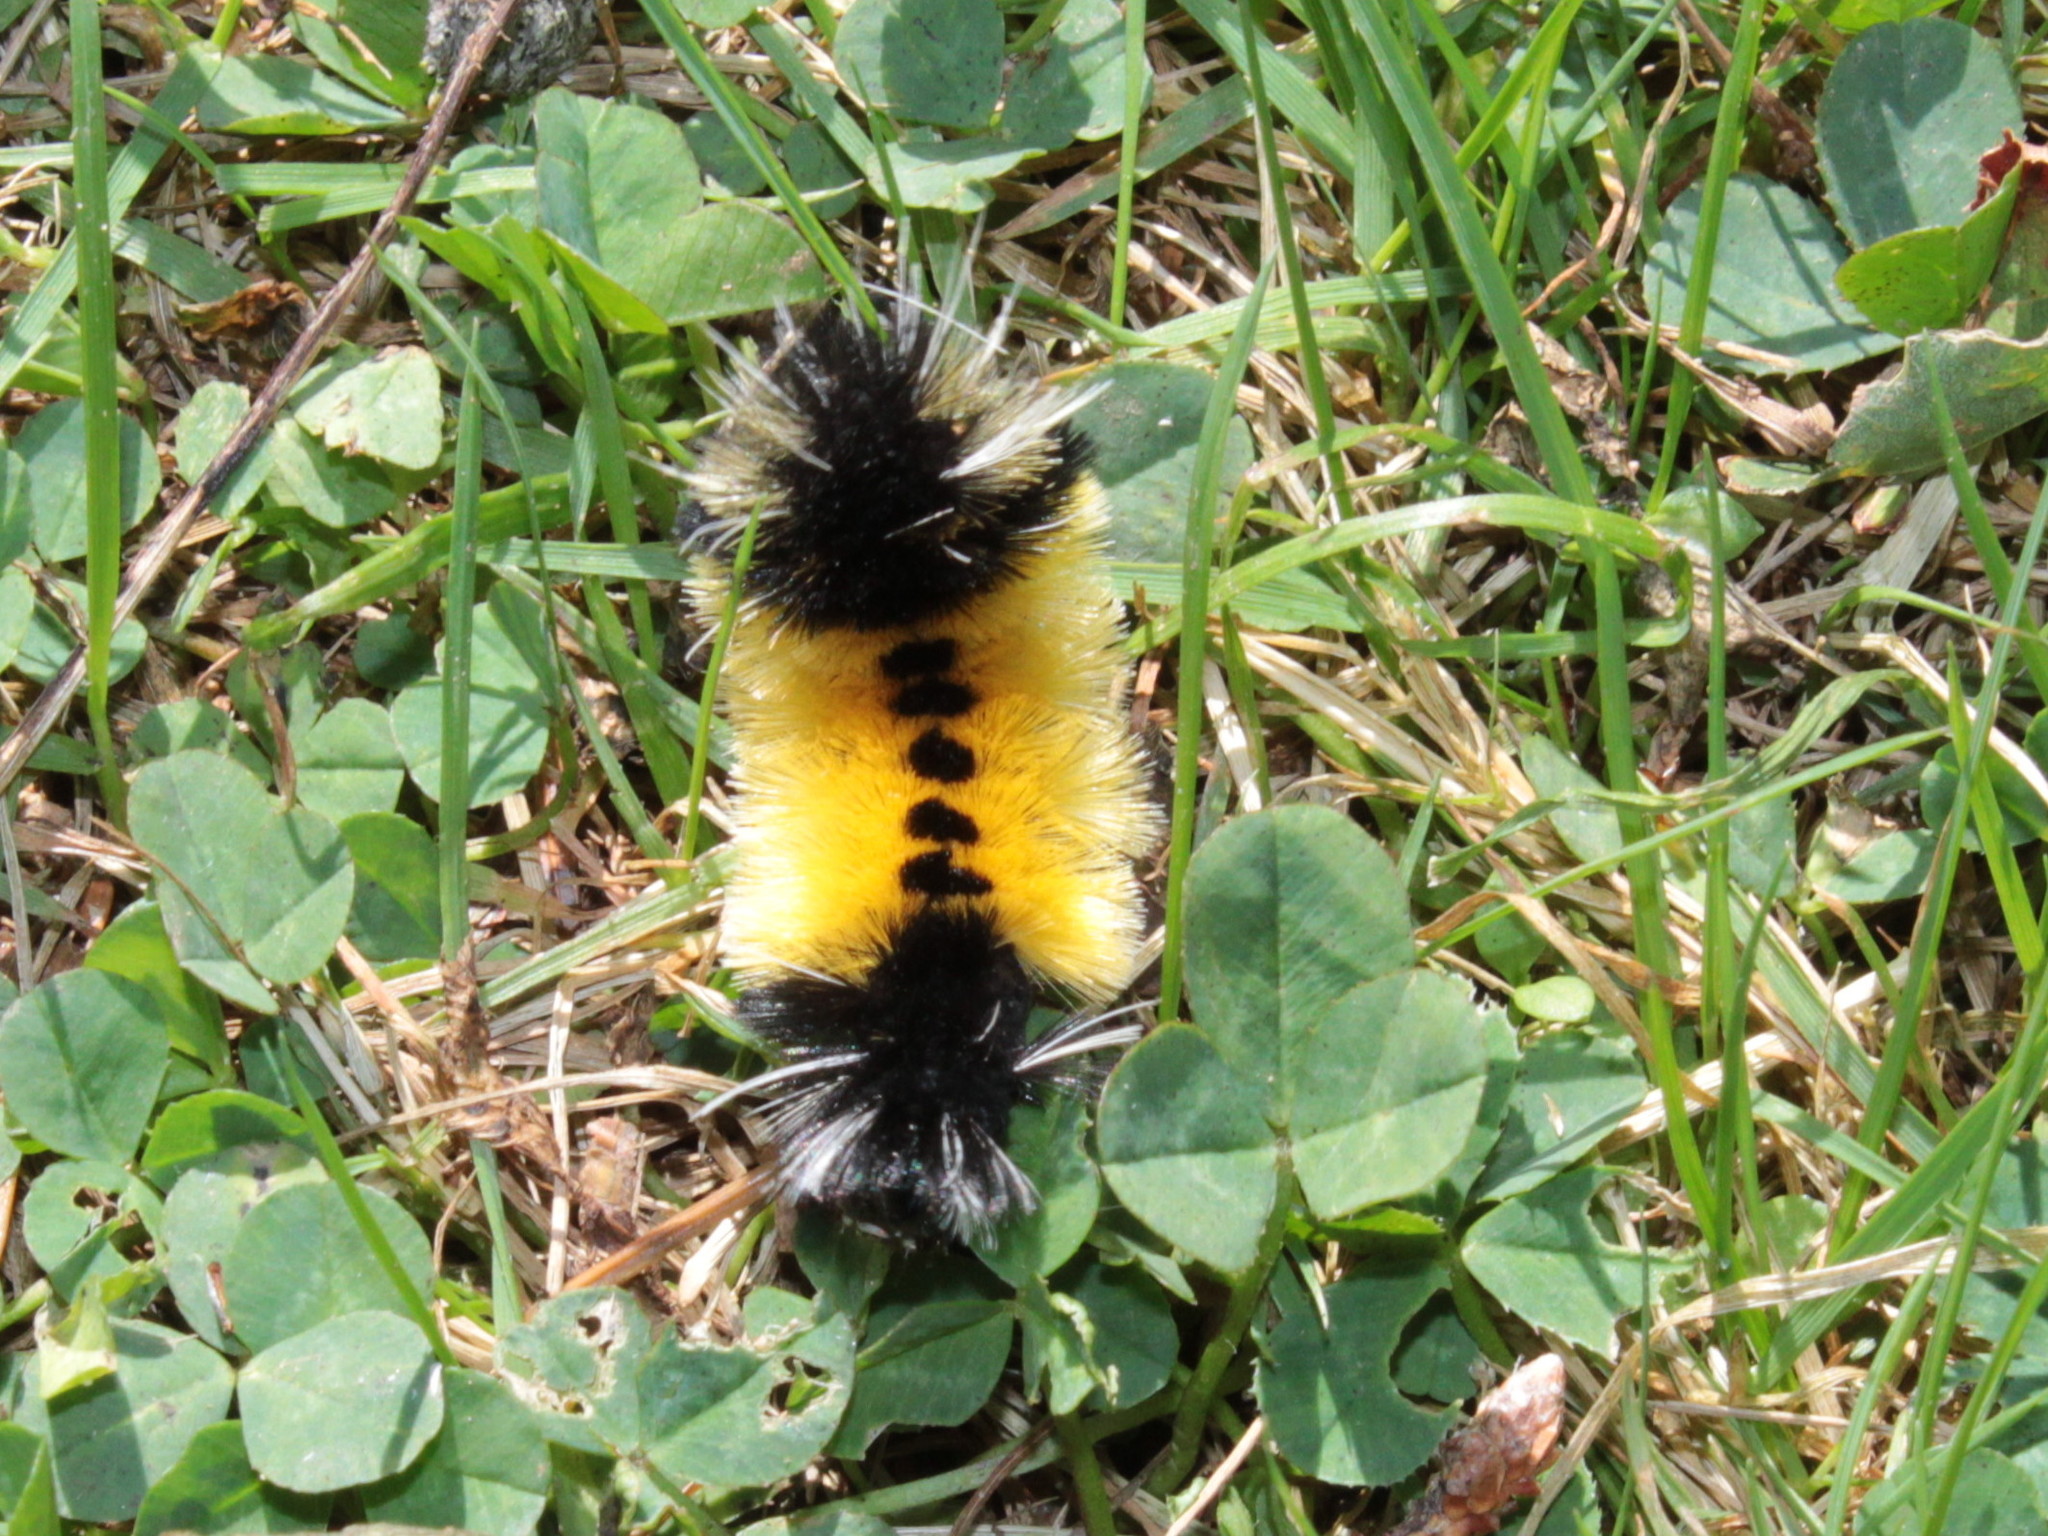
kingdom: Animalia
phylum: Arthropoda
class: Insecta
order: Lepidoptera
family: Erebidae
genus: Lophocampa
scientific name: Lophocampa maculata
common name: Spotted tussock moth
